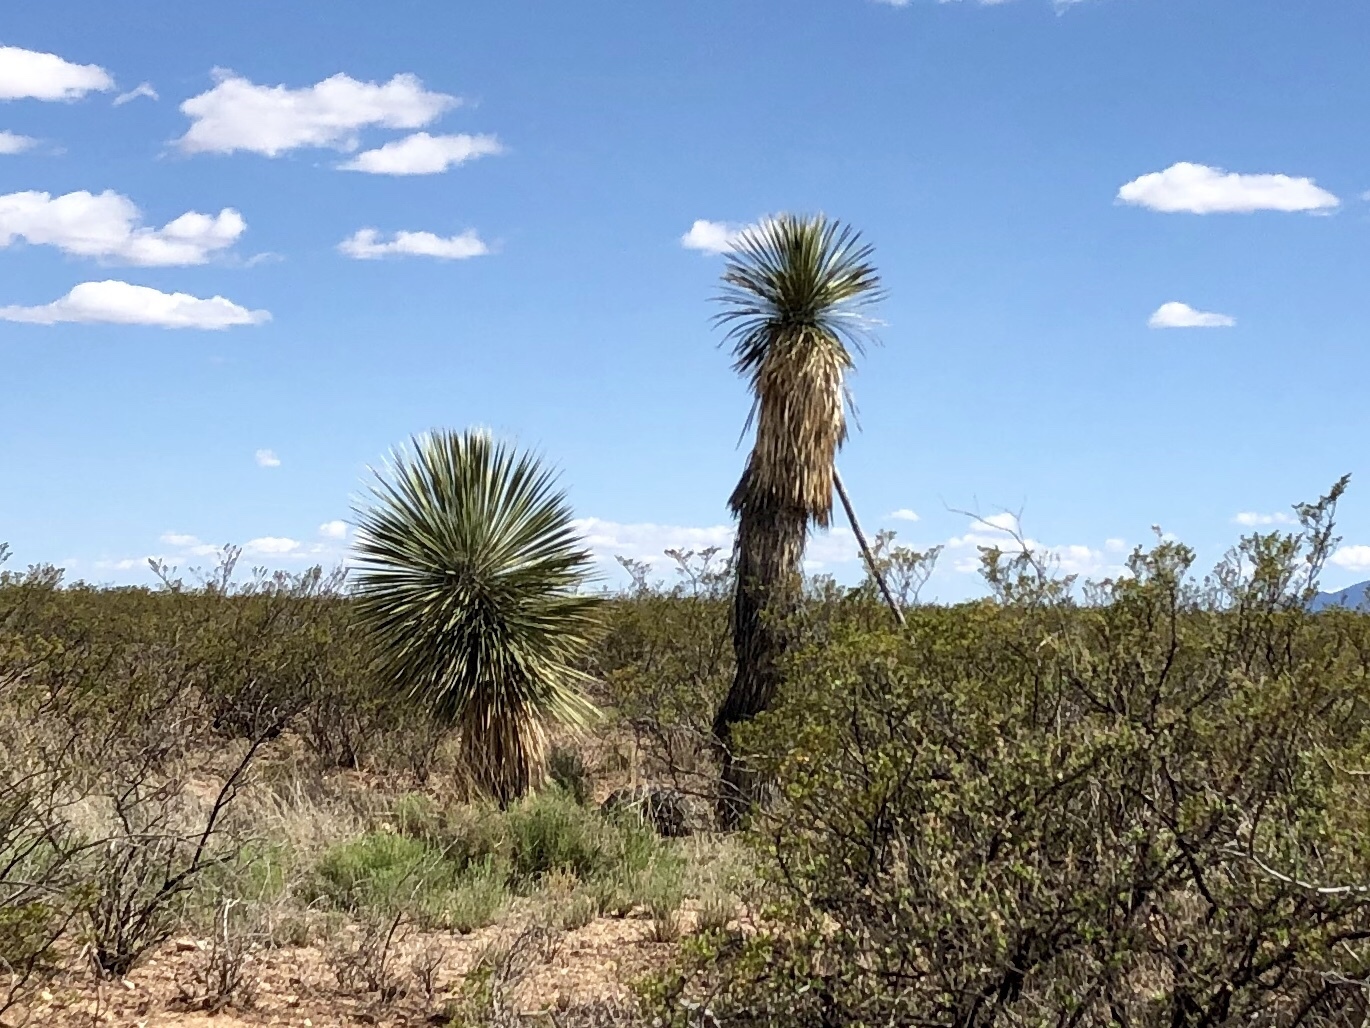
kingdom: Plantae
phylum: Tracheophyta
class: Liliopsida
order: Asparagales
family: Asparagaceae
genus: Yucca
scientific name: Yucca elata
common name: Palmella
